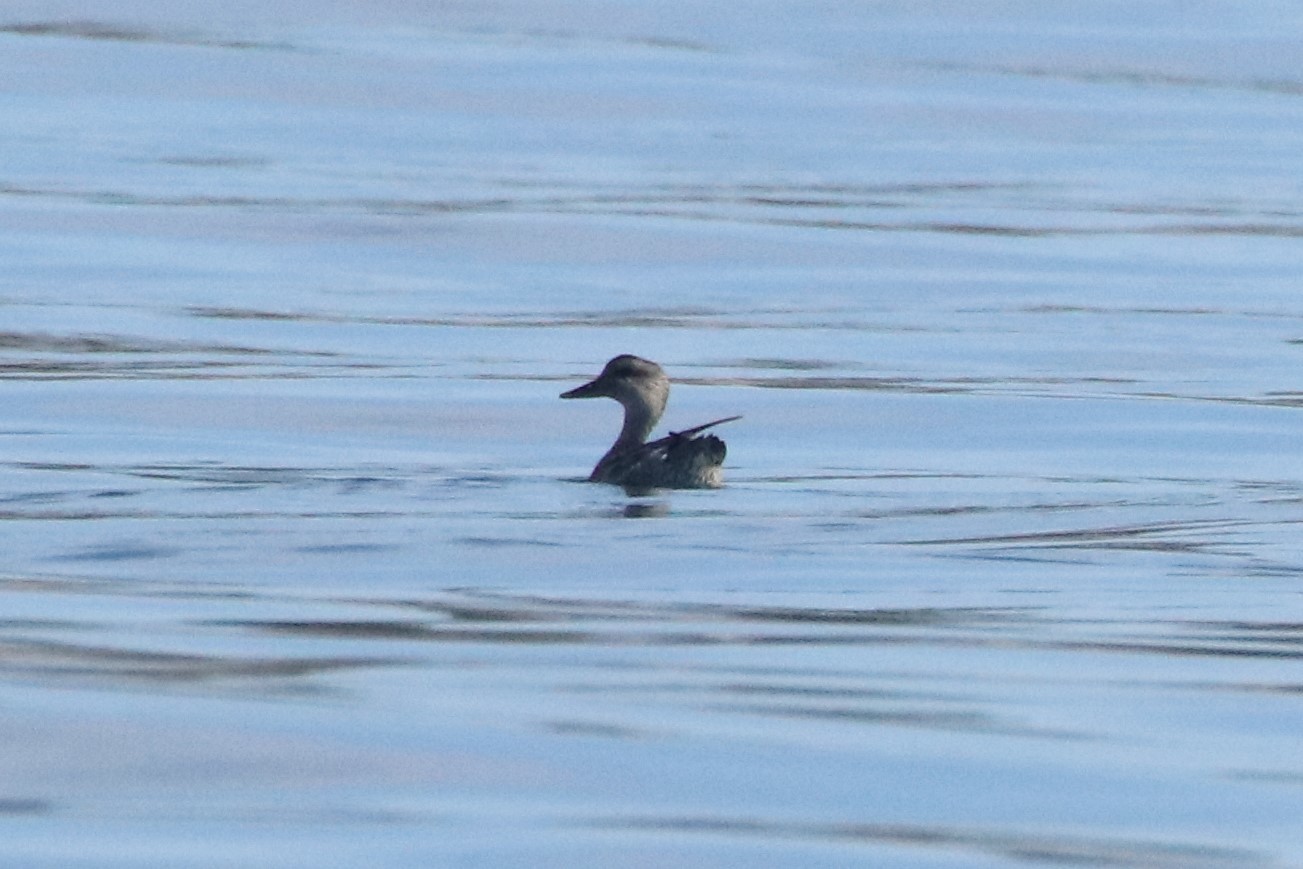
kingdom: Animalia
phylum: Chordata
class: Aves
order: Anseriformes
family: Anatidae
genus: Mareca
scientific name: Mareca strepera
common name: Gadwall
